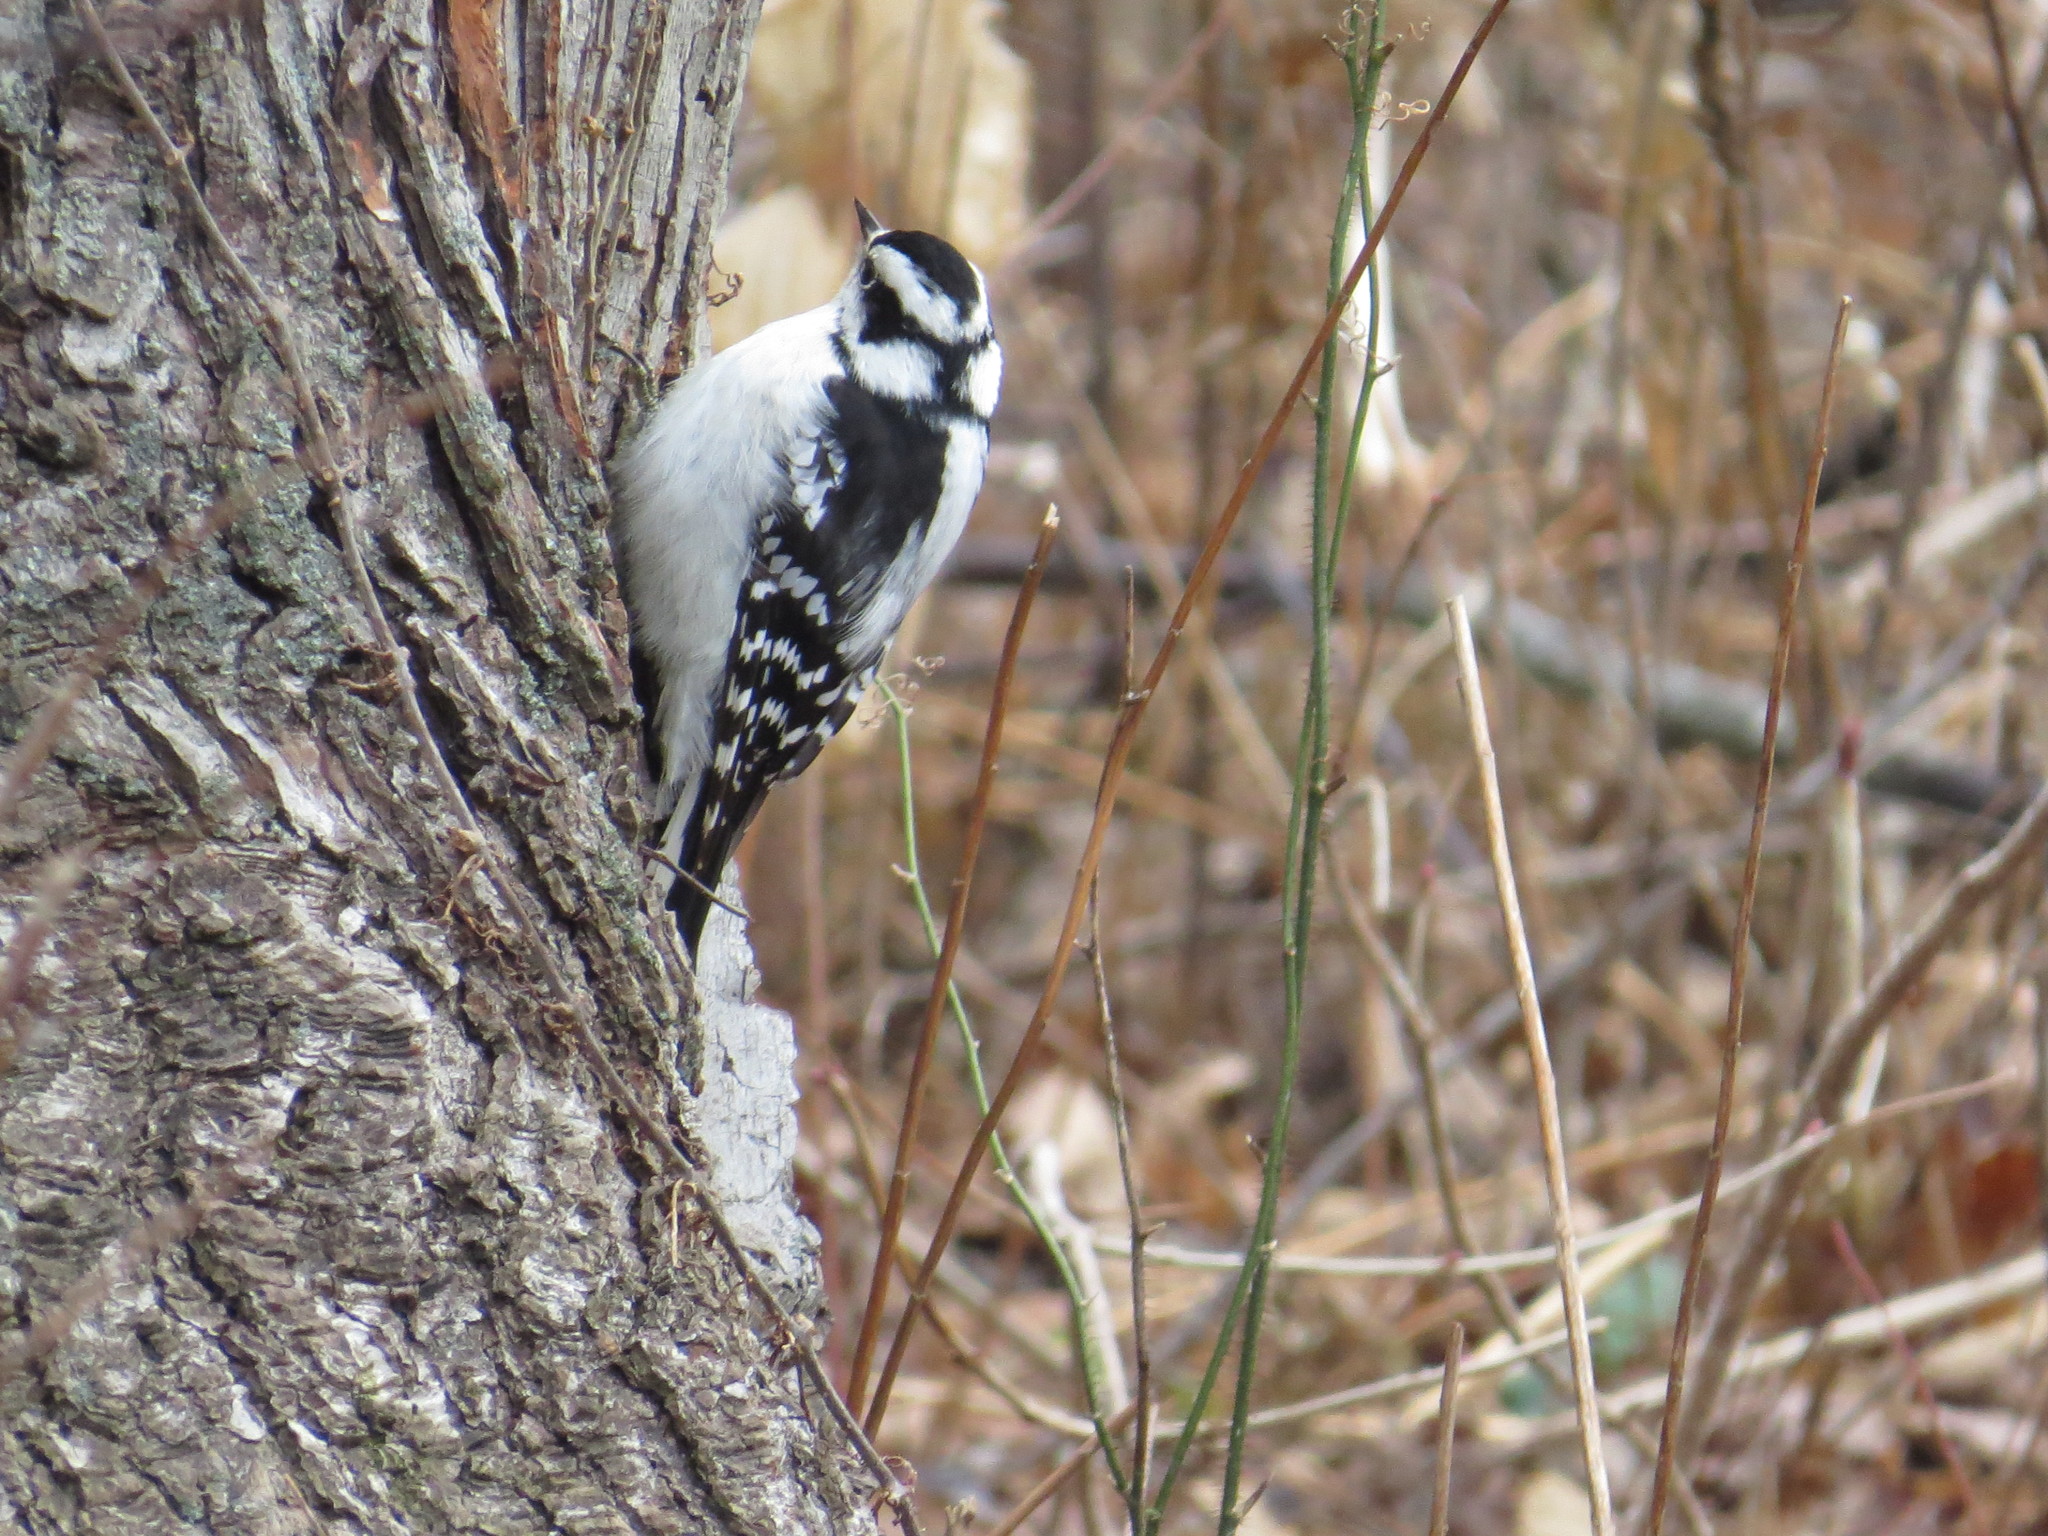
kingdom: Animalia
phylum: Chordata
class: Aves
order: Piciformes
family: Picidae
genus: Dryobates
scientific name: Dryobates pubescens
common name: Downy woodpecker
